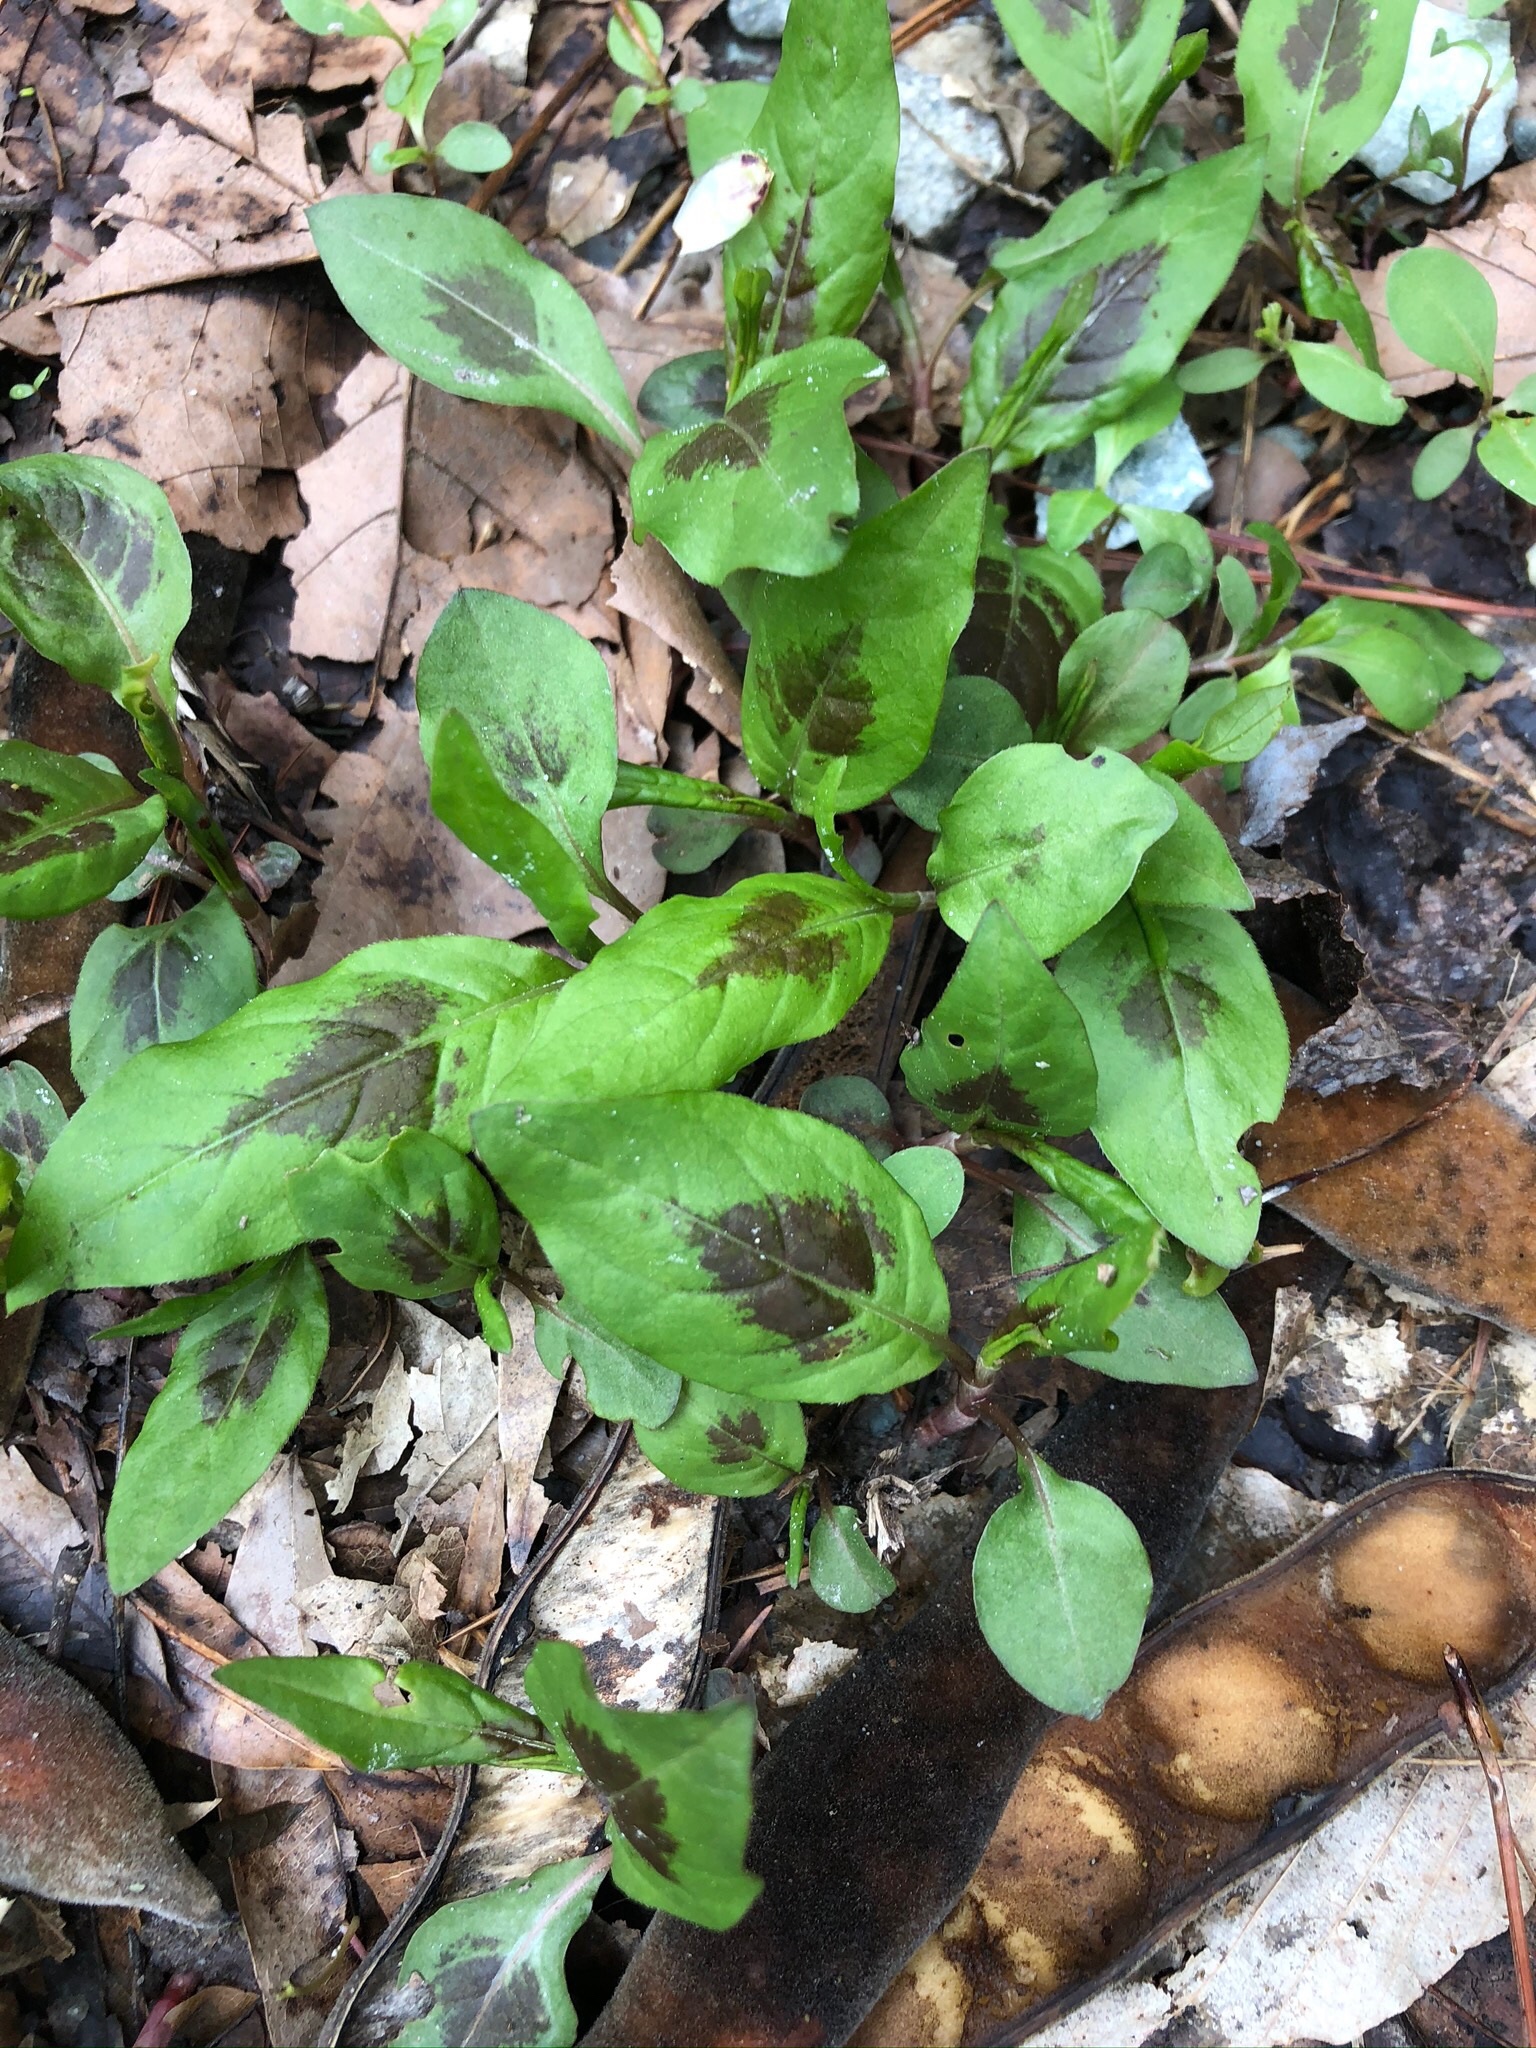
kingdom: Plantae
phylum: Tracheophyta
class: Magnoliopsida
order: Caryophyllales
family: Polygonaceae
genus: Persicaria
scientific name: Persicaria virginiana
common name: Jumpseed
